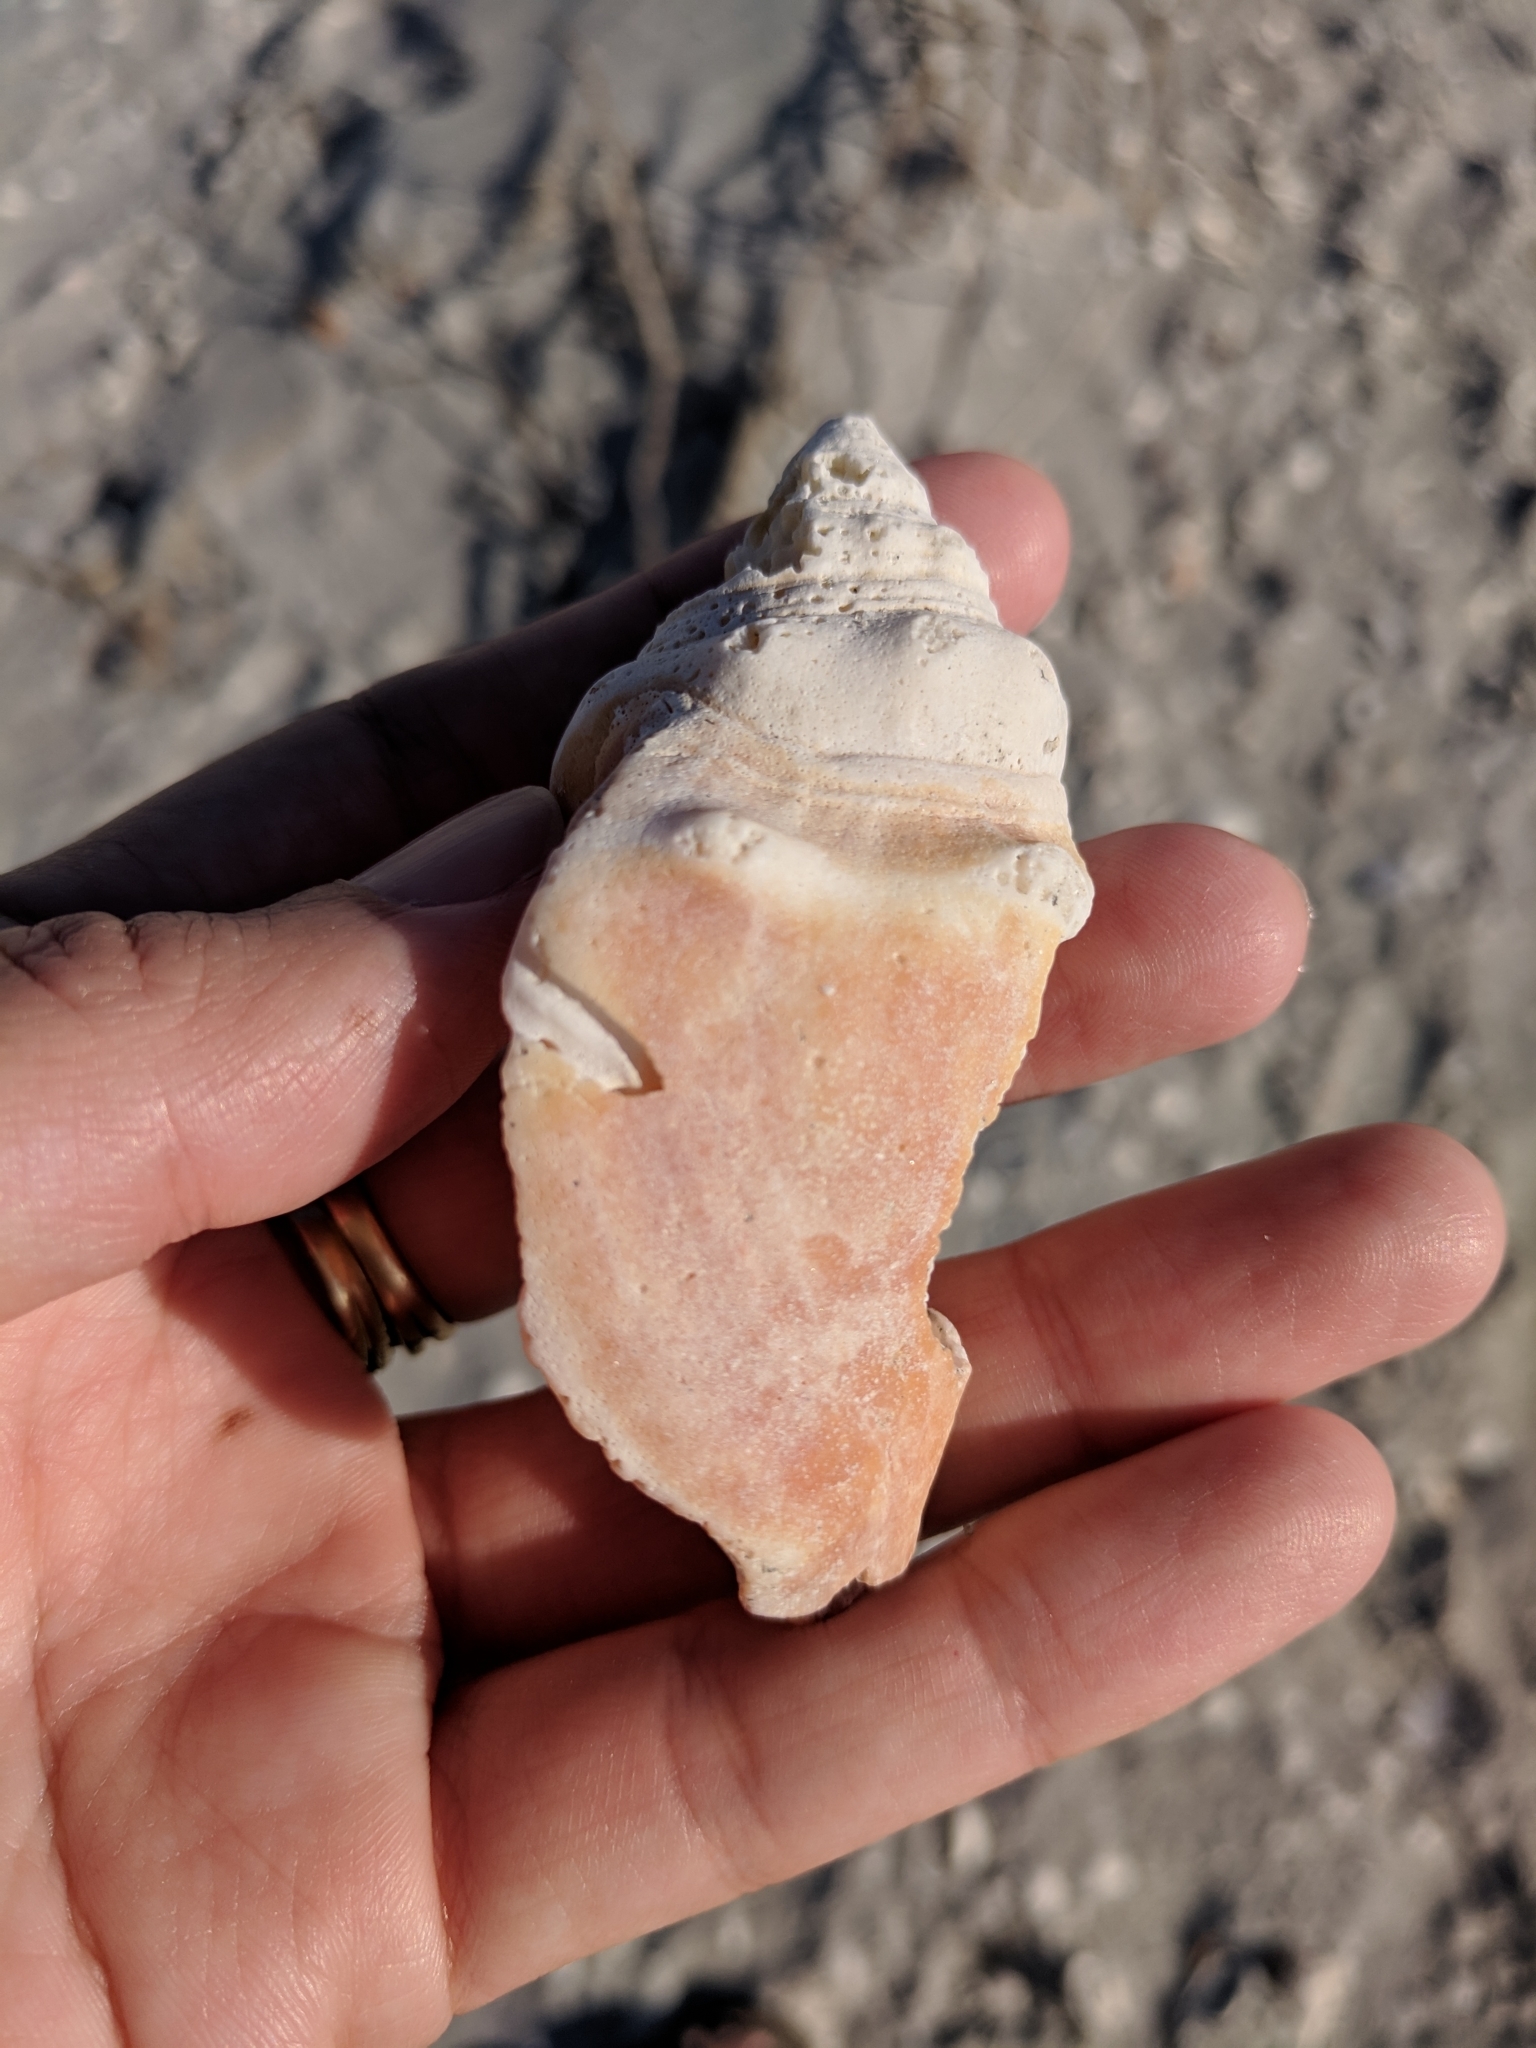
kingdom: Animalia
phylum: Mollusca
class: Gastropoda
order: Littorinimorpha
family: Strombidae
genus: Strombus
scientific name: Strombus alatus
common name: Florida fighting conch
